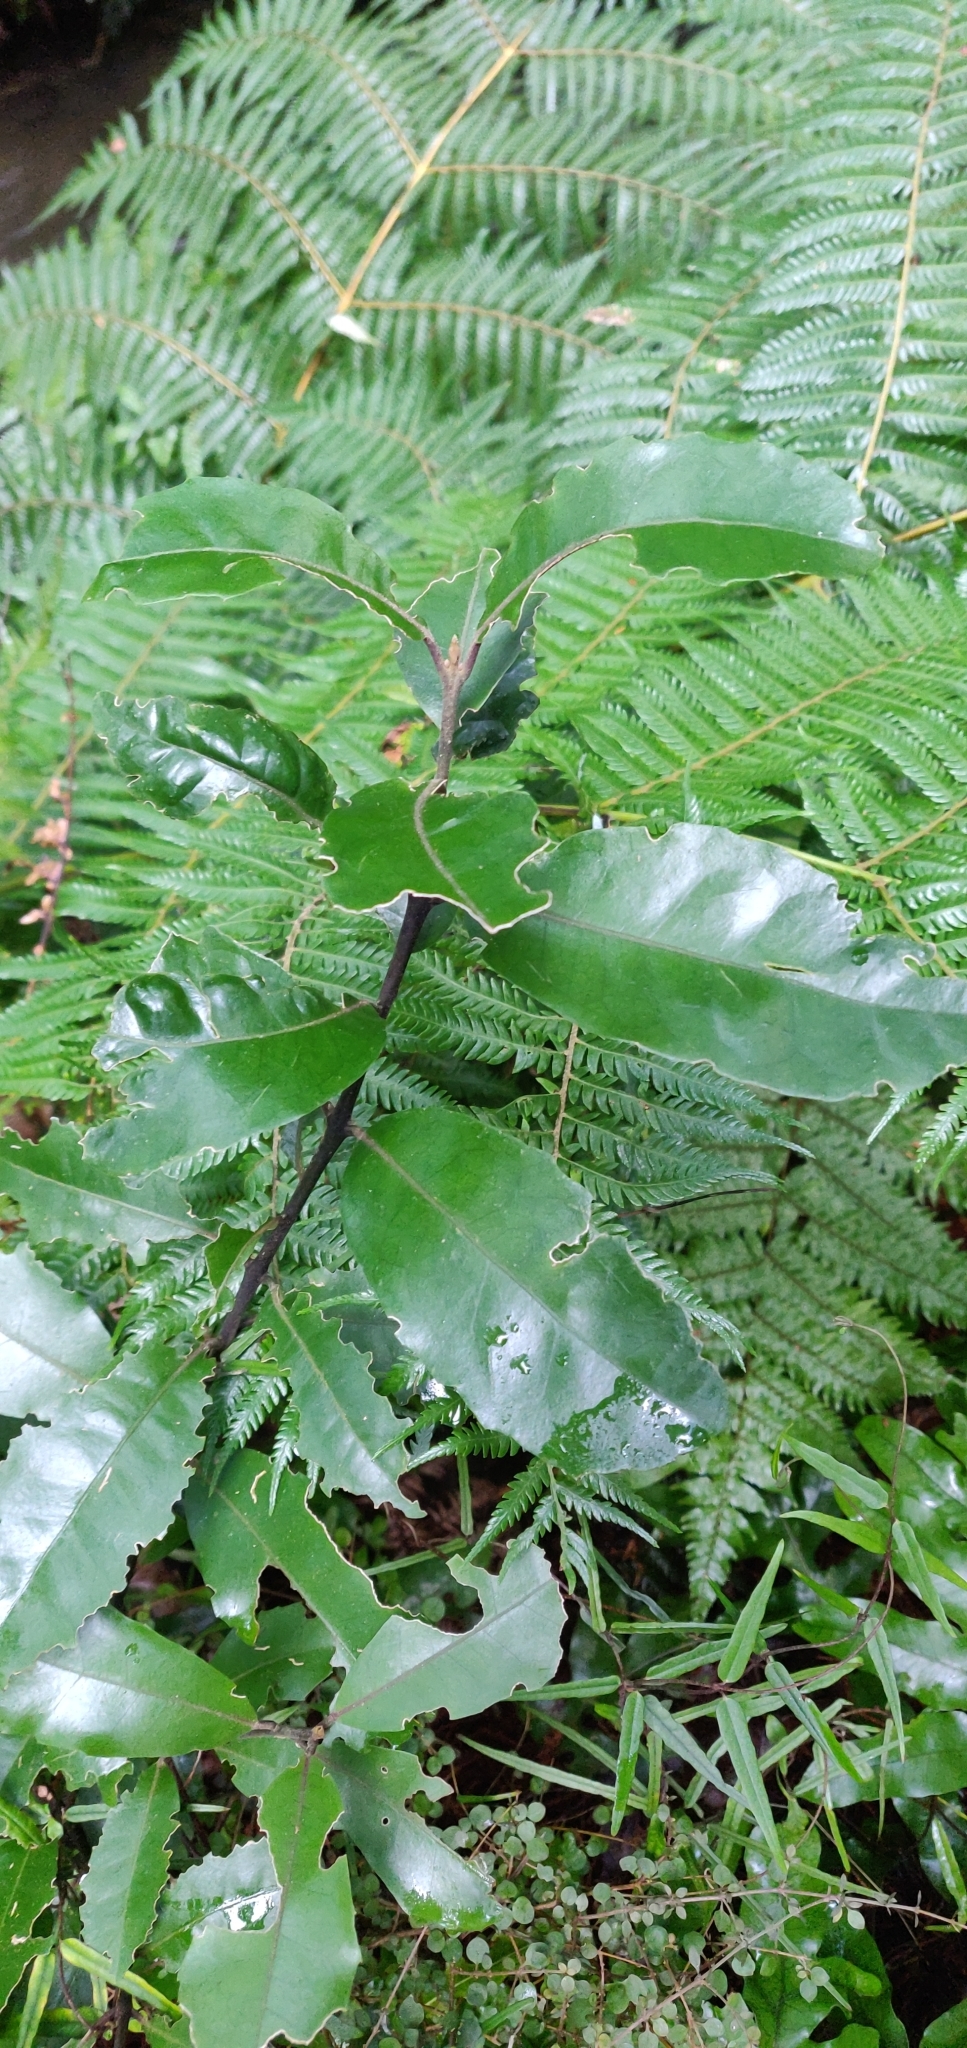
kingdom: Plantae
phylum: Tracheophyta
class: Magnoliopsida
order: Laurales
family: Monimiaceae
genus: Hedycarya
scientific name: Hedycarya arborea
